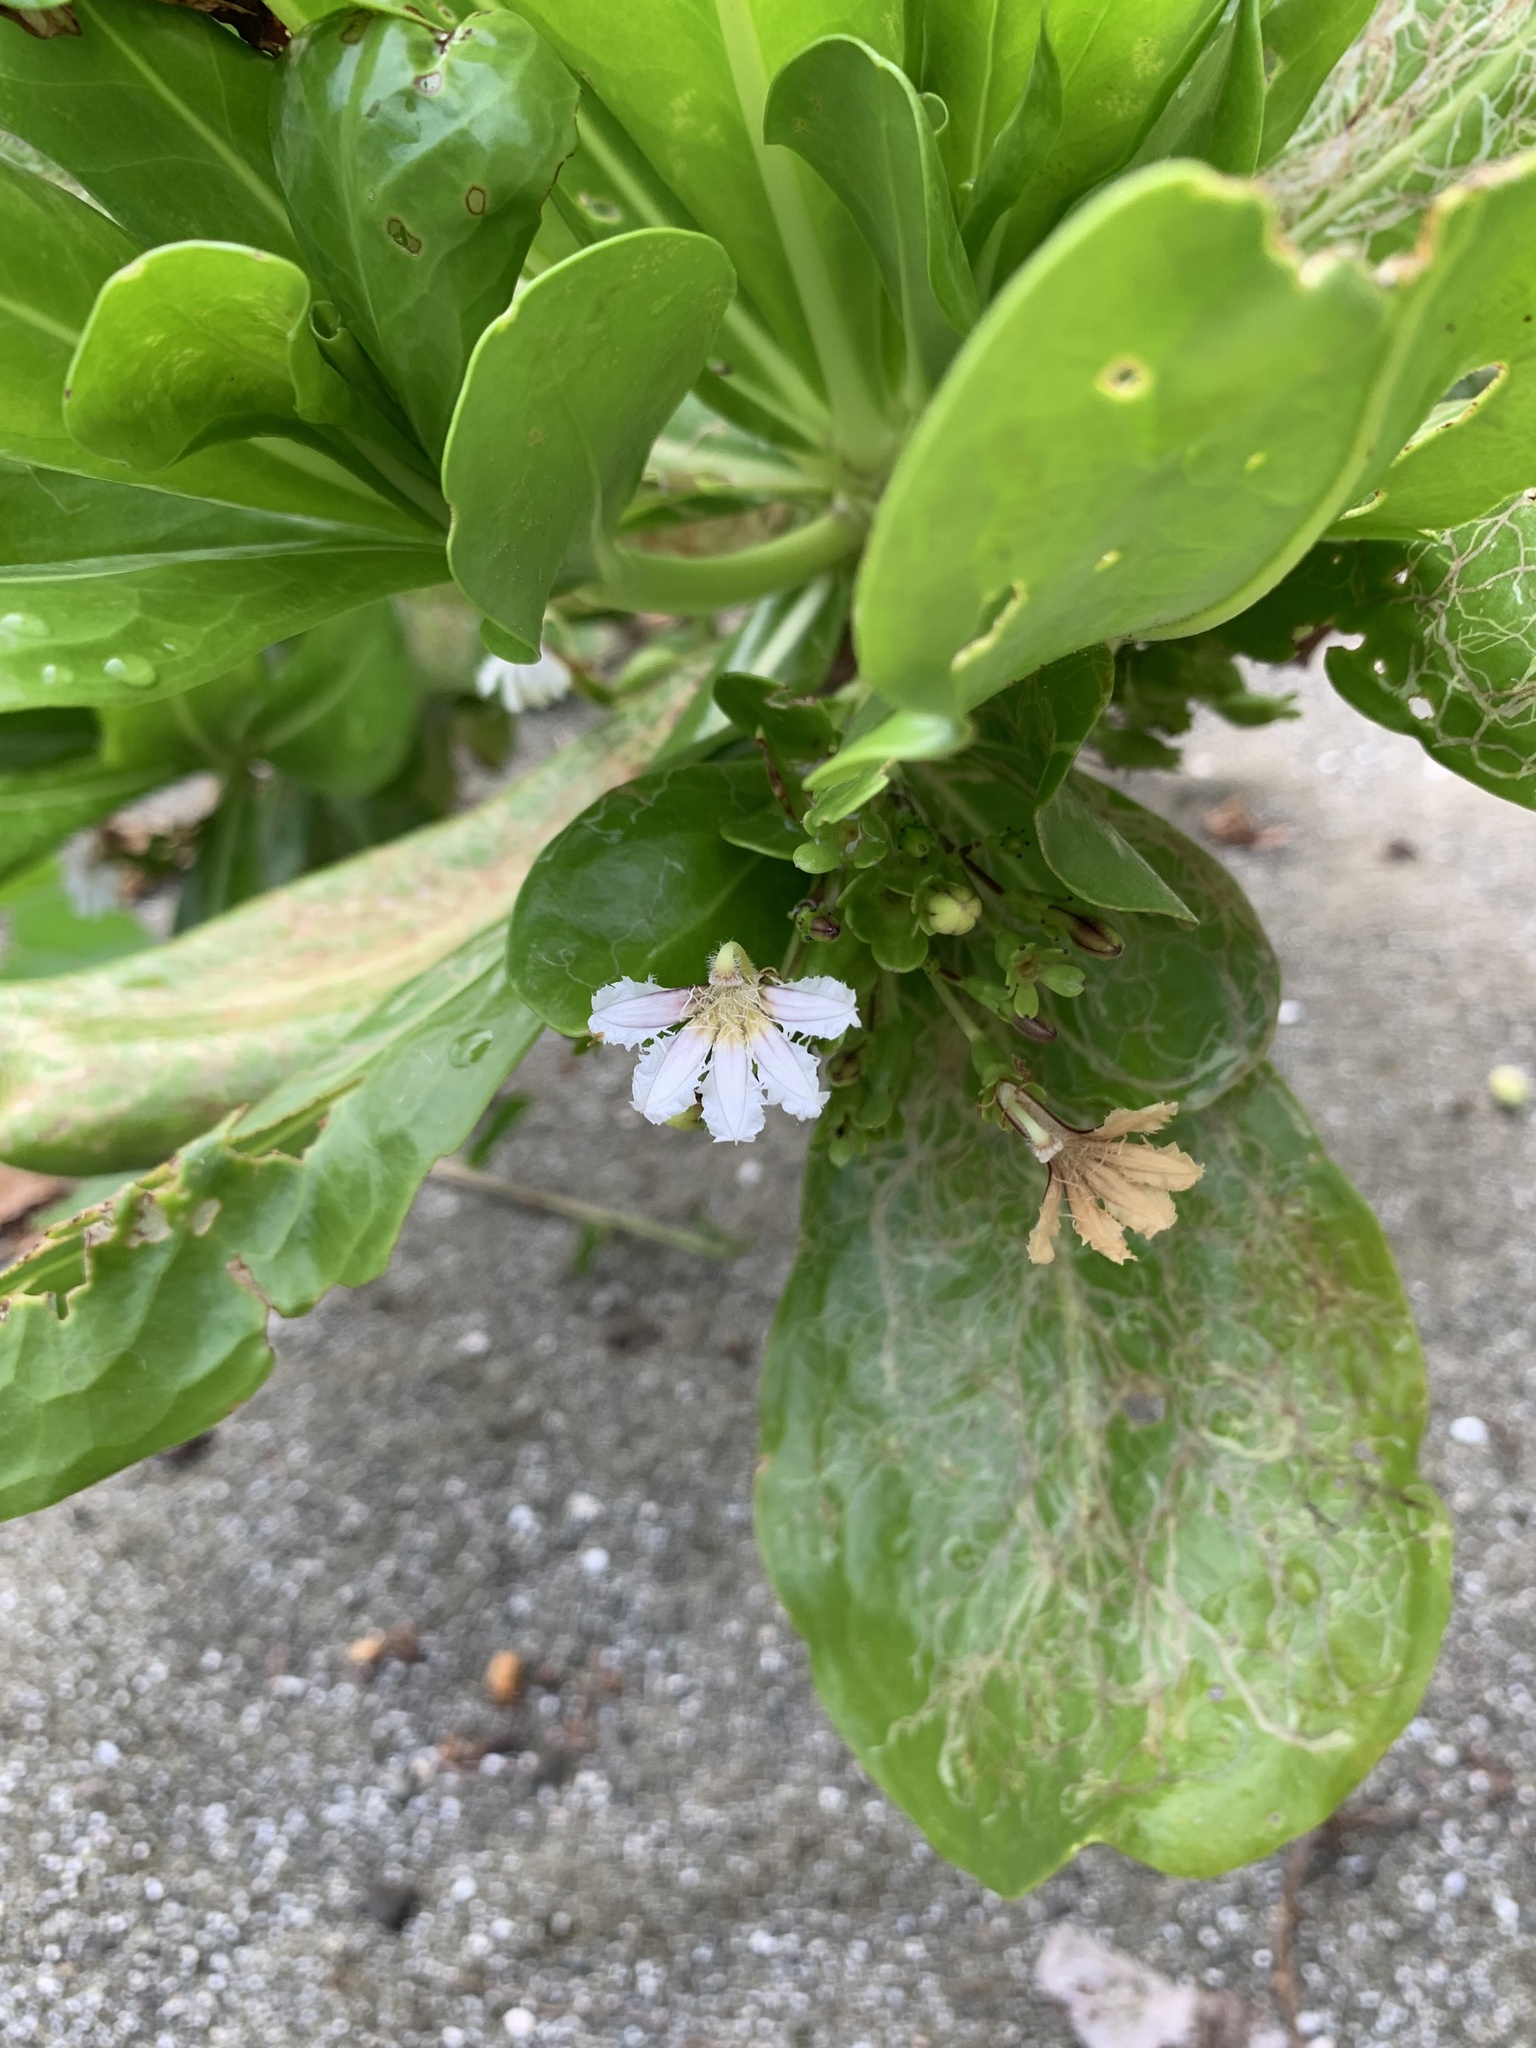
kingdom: Plantae
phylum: Tracheophyta
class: Magnoliopsida
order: Asterales
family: Goodeniaceae
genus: Scaevola
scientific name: Scaevola taccada
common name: Sea lettucetree
